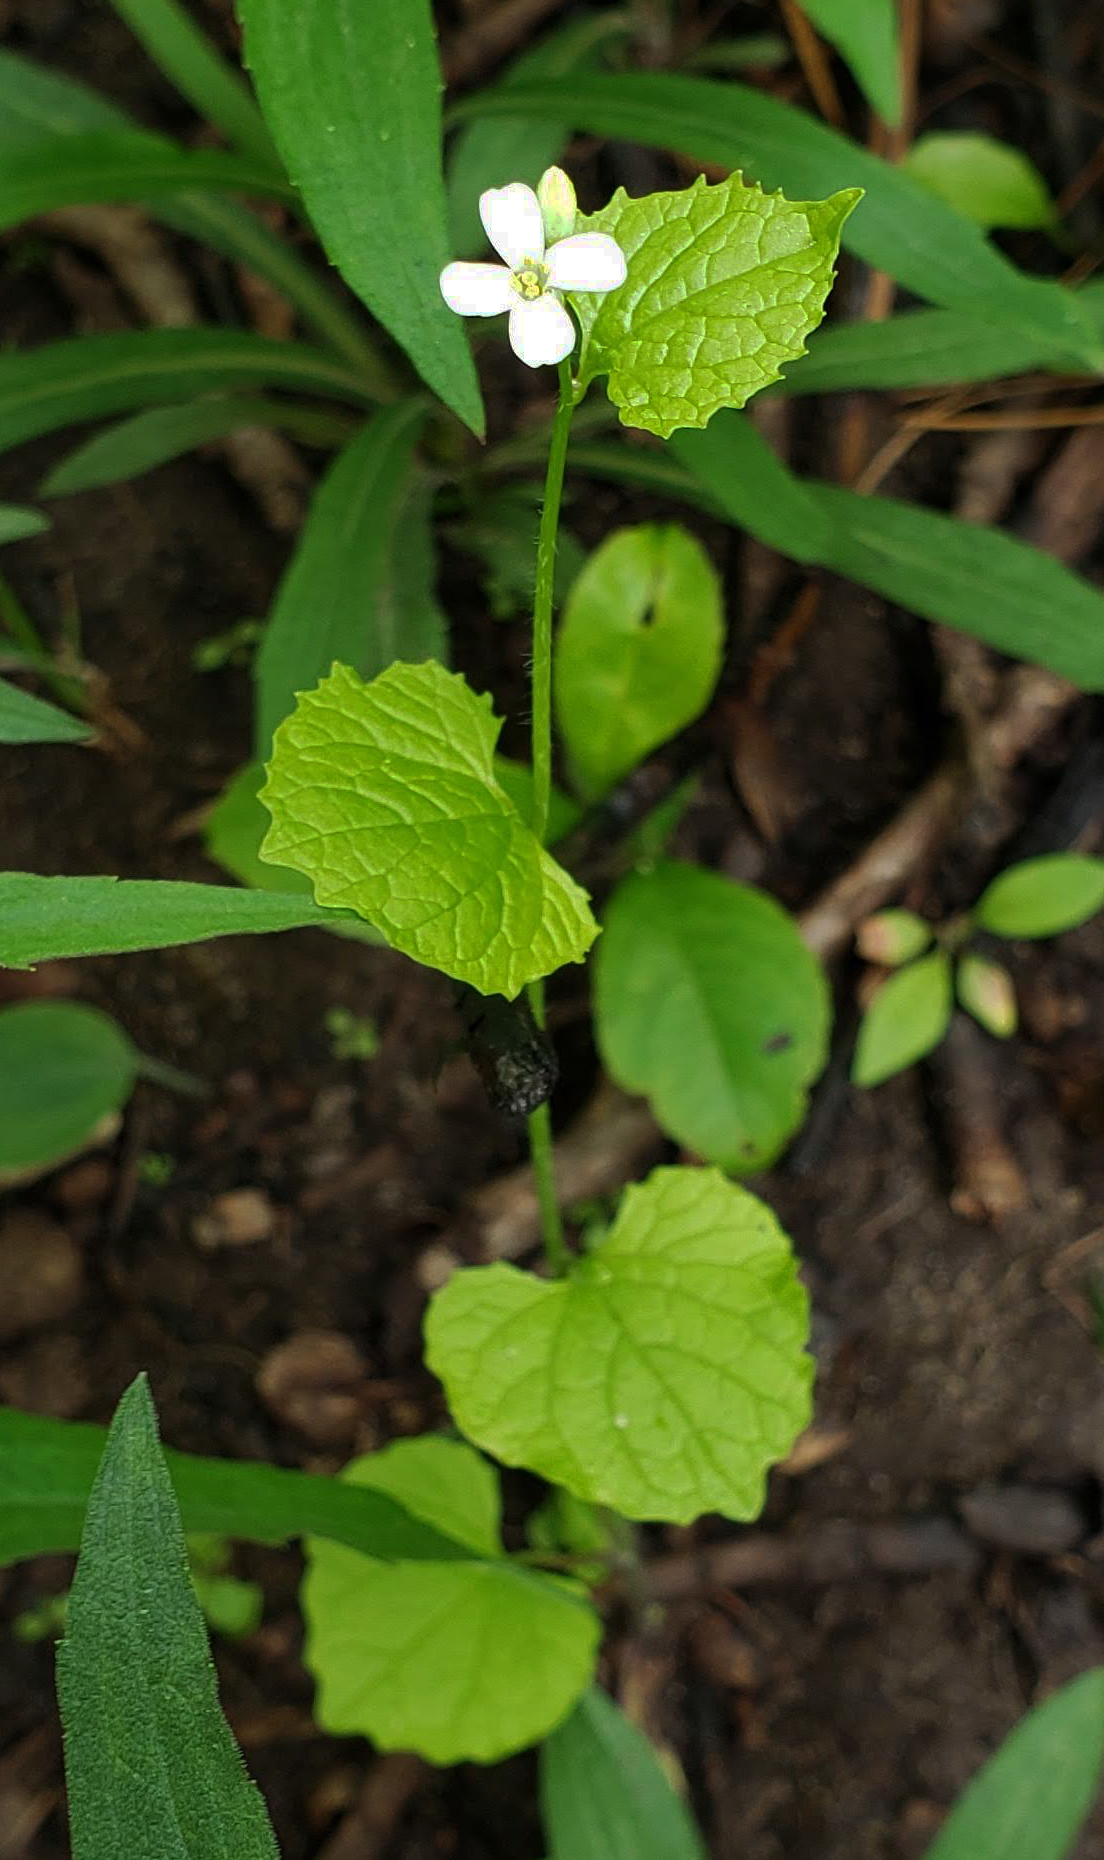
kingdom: Plantae
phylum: Tracheophyta
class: Magnoliopsida
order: Brassicales
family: Brassicaceae
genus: Alliaria
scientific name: Alliaria petiolata
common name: Garlic mustard
